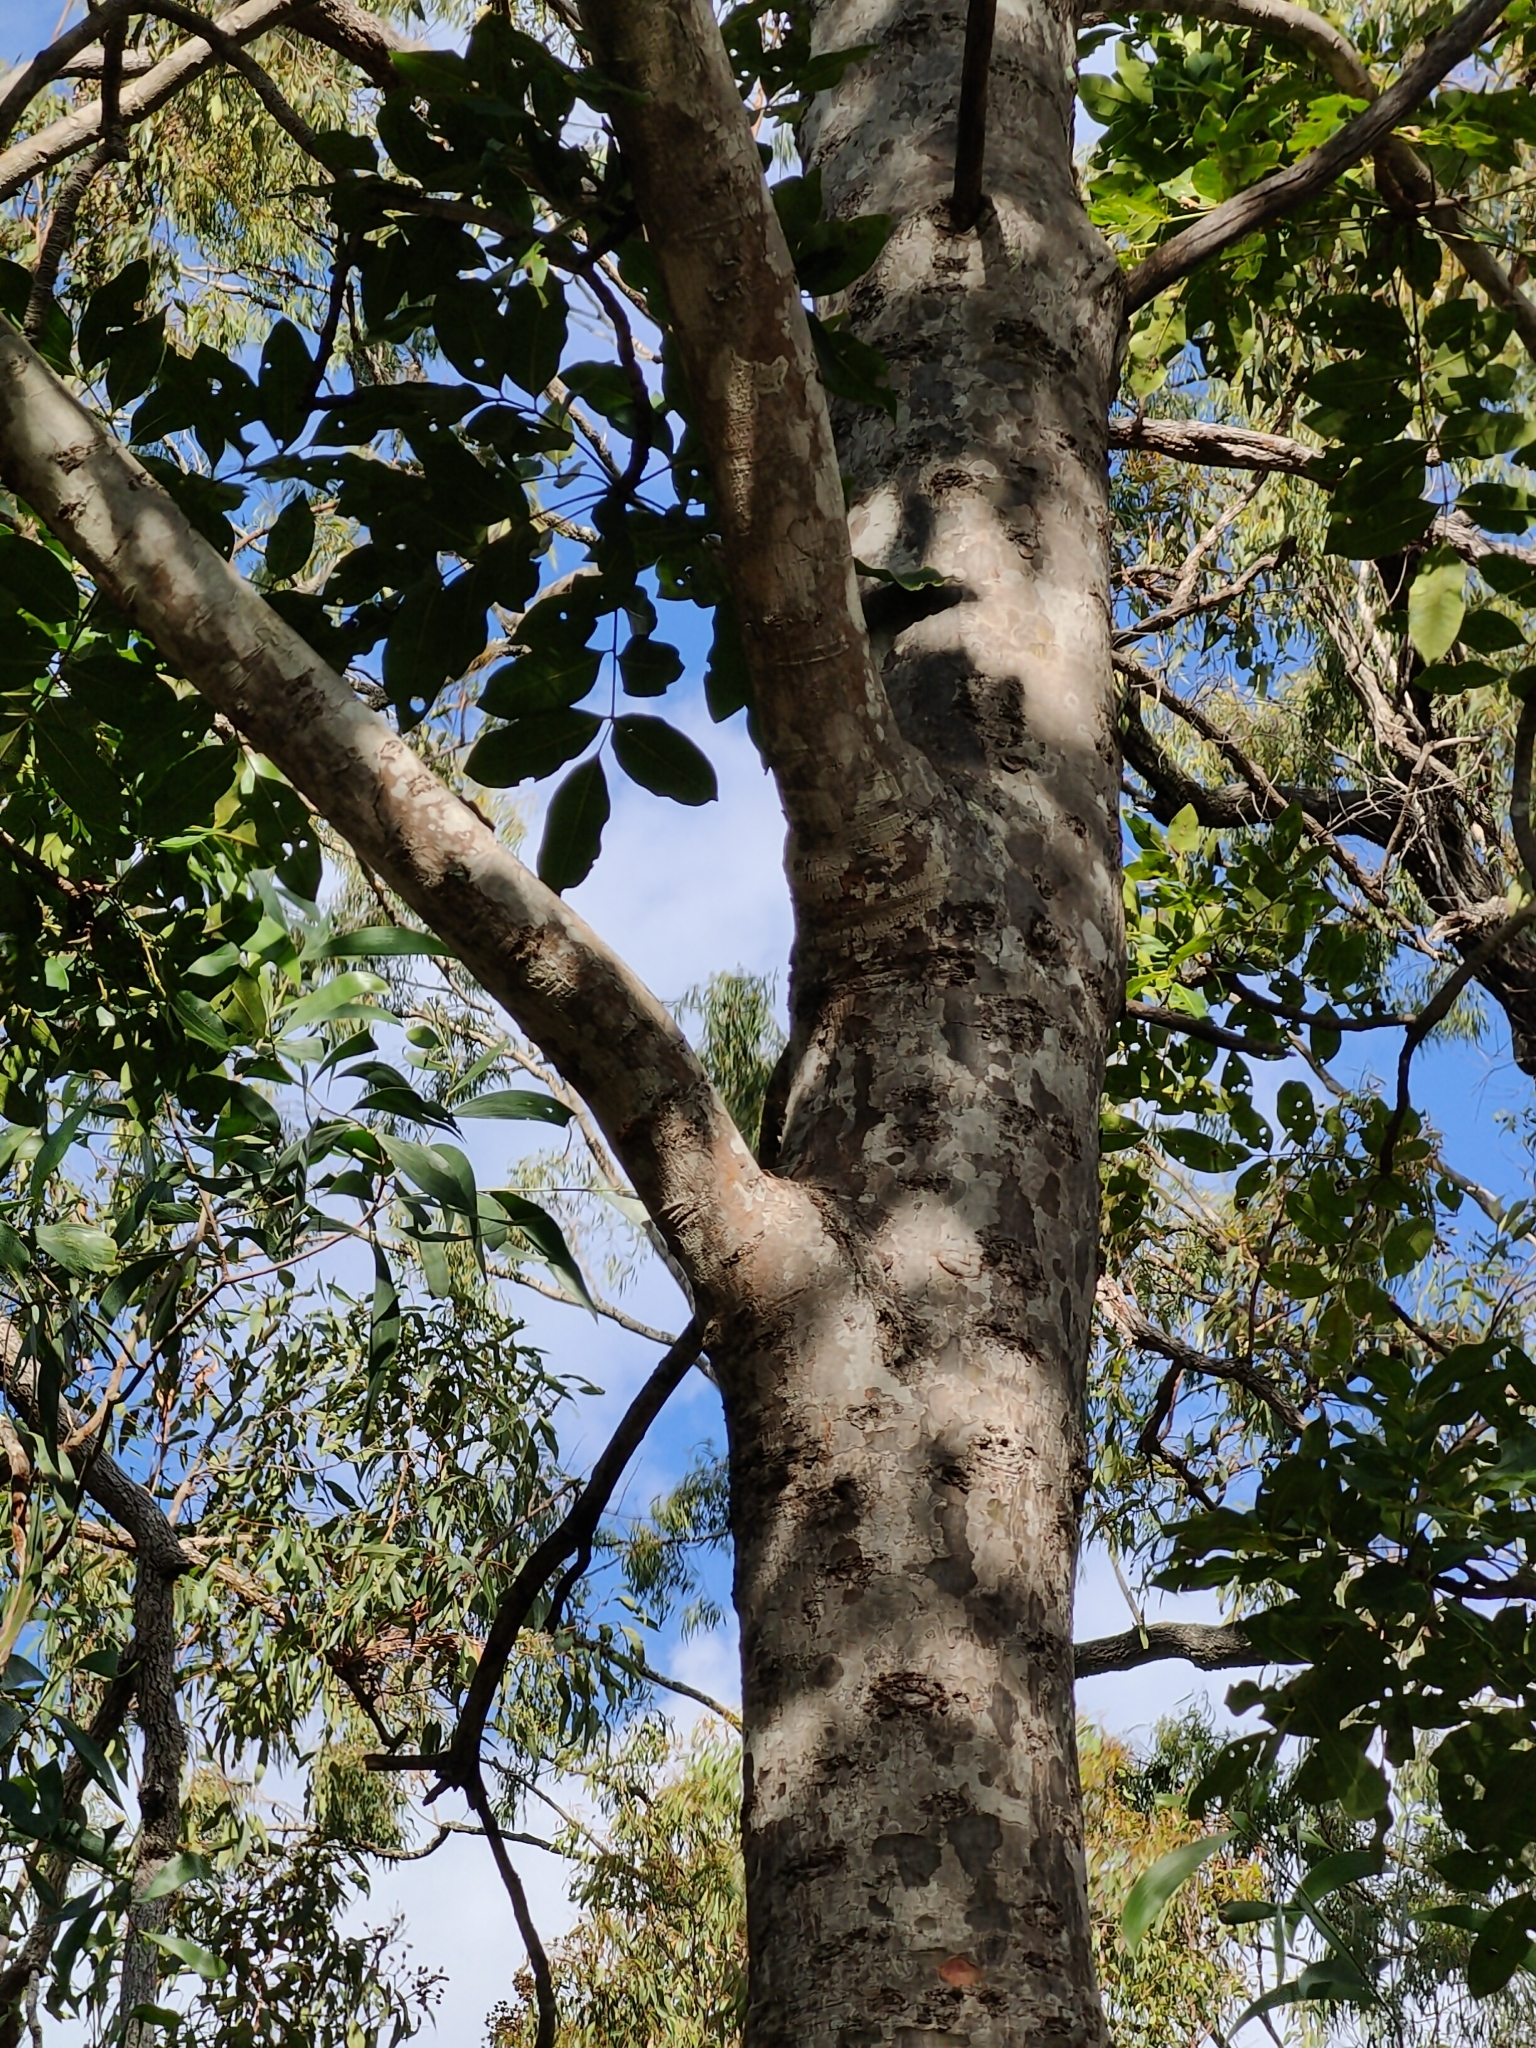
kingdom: Plantae
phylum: Tracheophyta
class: Magnoliopsida
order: Sapindales
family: Rutaceae
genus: Flindersia
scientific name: Flindersia australis
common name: Australian-teak
